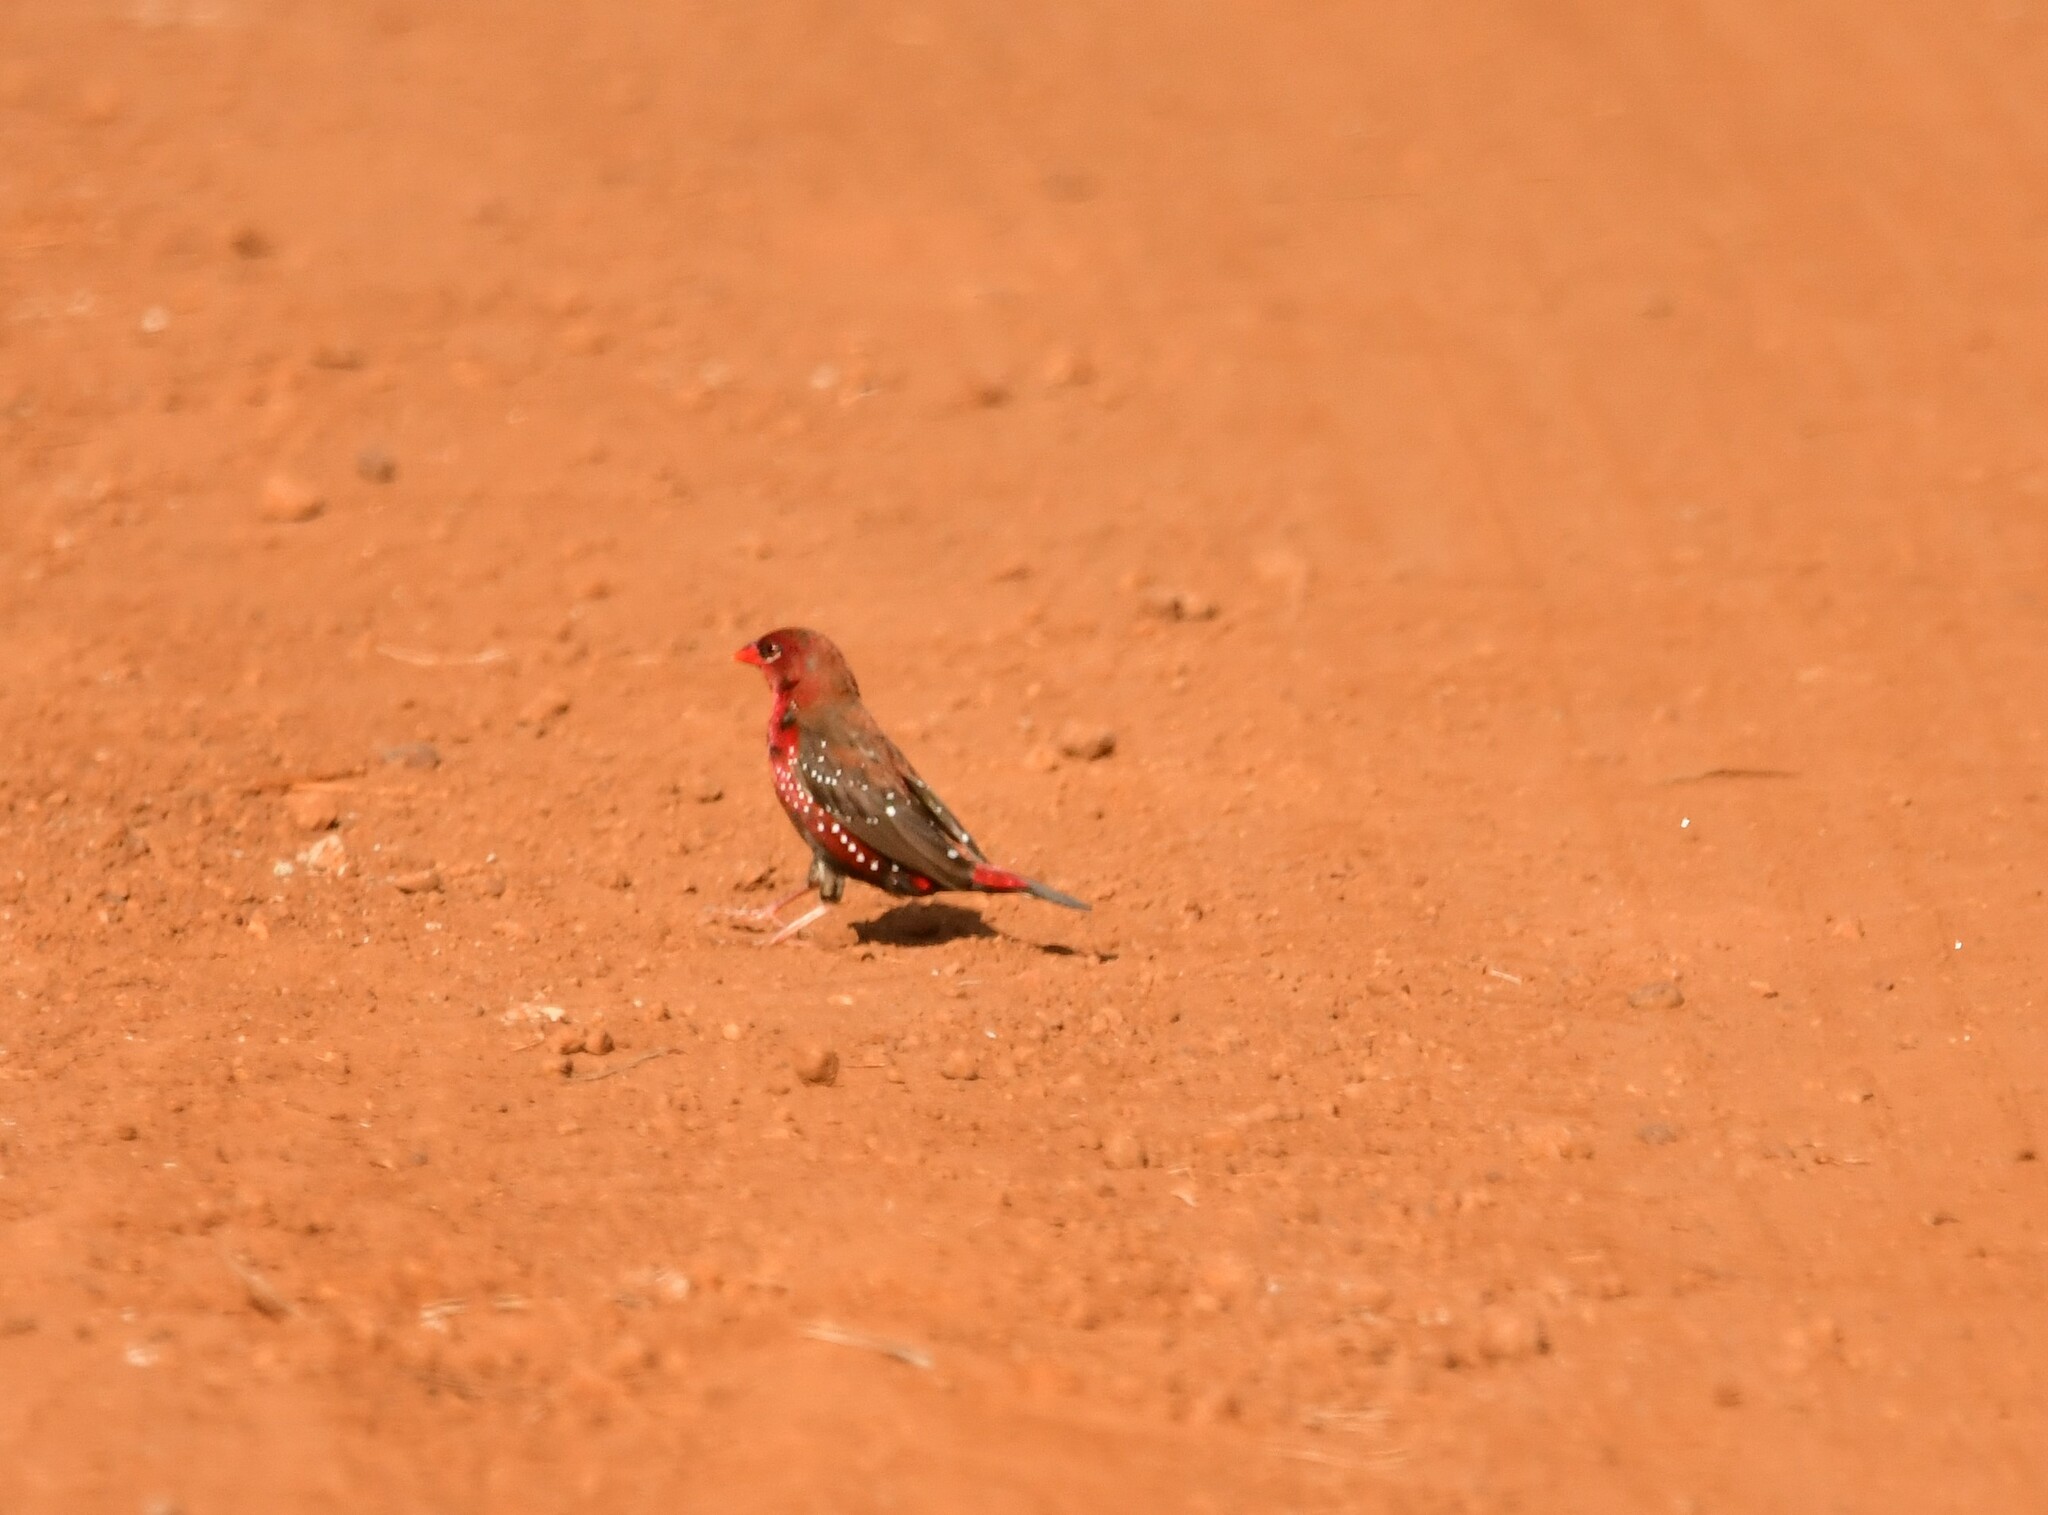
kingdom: Animalia
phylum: Chordata
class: Aves
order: Passeriformes
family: Estrildidae
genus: Amandava
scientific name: Amandava amandava
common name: Red avadavat
